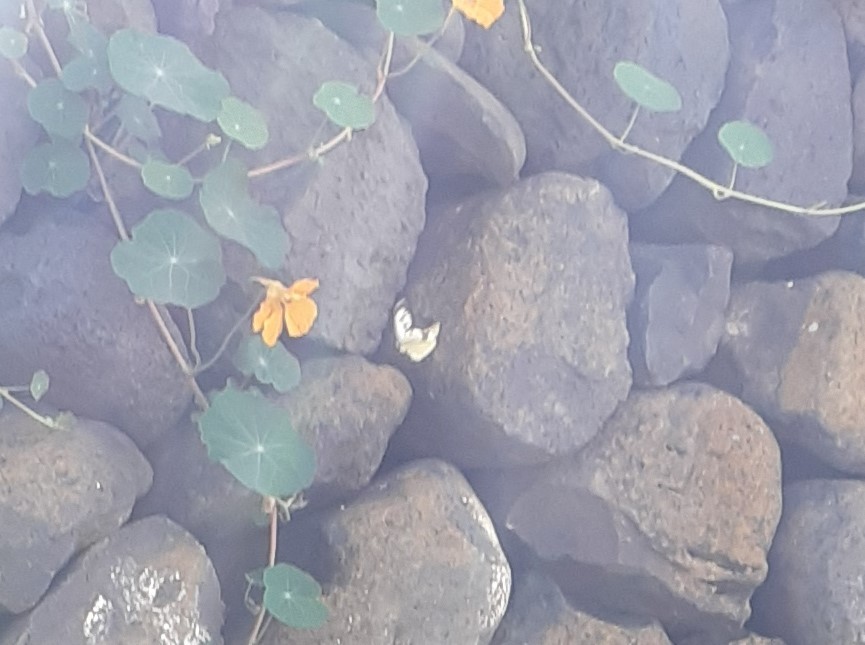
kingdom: Animalia
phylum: Arthropoda
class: Insecta
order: Lepidoptera
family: Pieridae
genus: Pieris
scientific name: Pieris cheiranthi
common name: Canary islands large white
